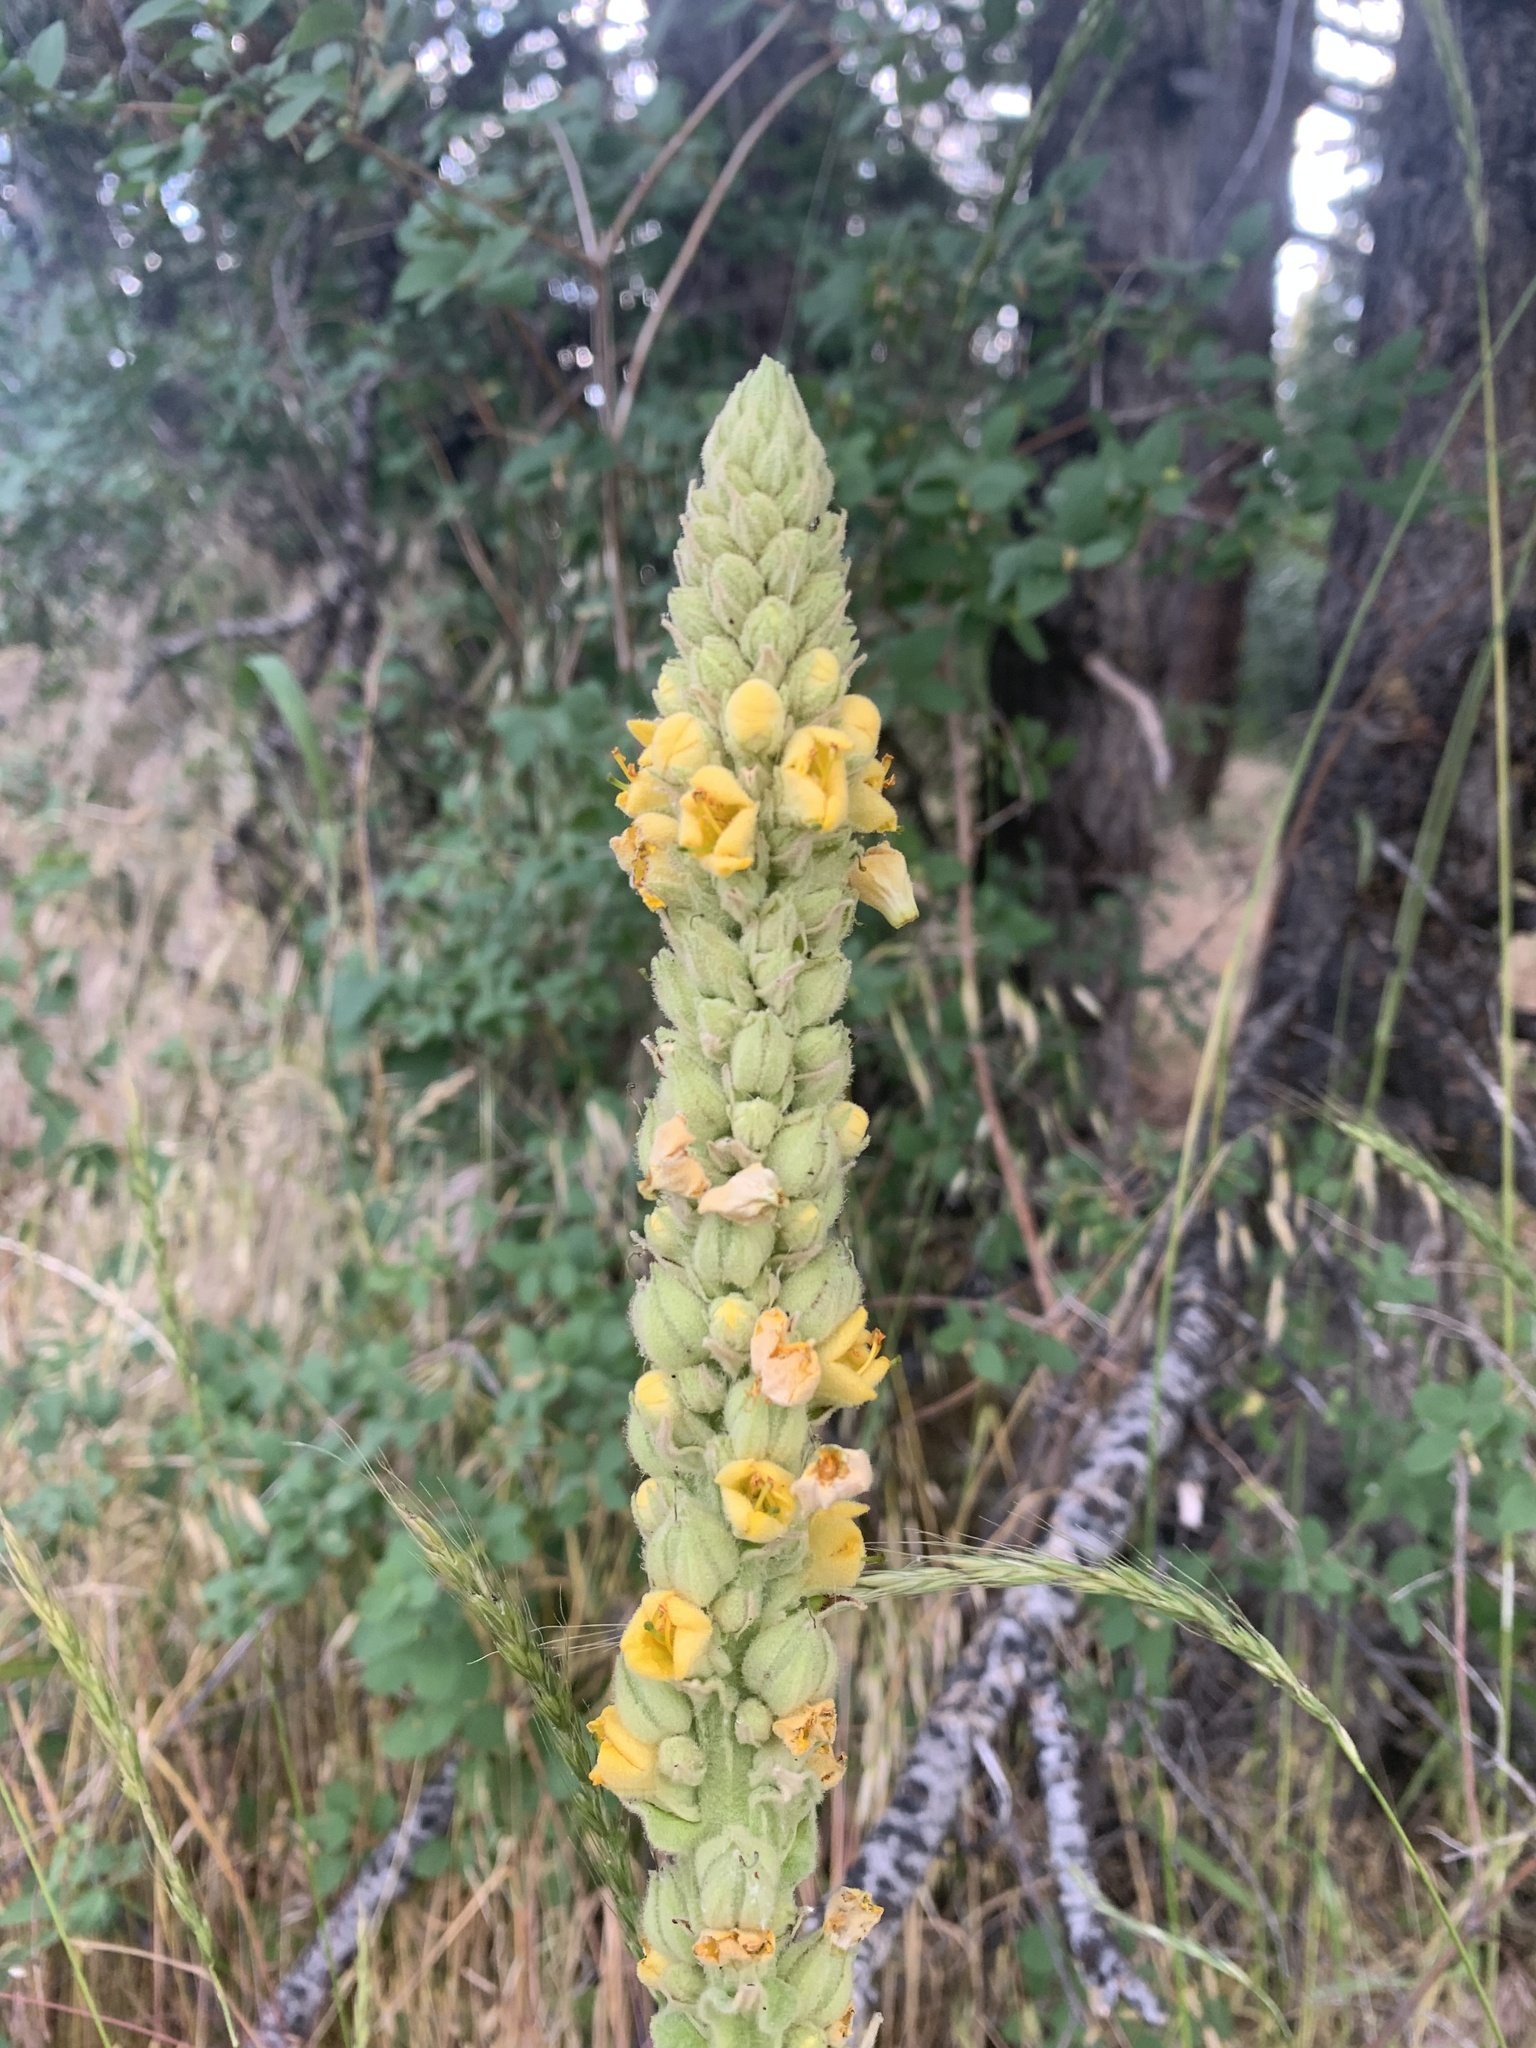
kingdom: Plantae
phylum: Tracheophyta
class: Magnoliopsida
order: Lamiales
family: Scrophulariaceae
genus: Verbascum
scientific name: Verbascum thapsus
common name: Common mullein
